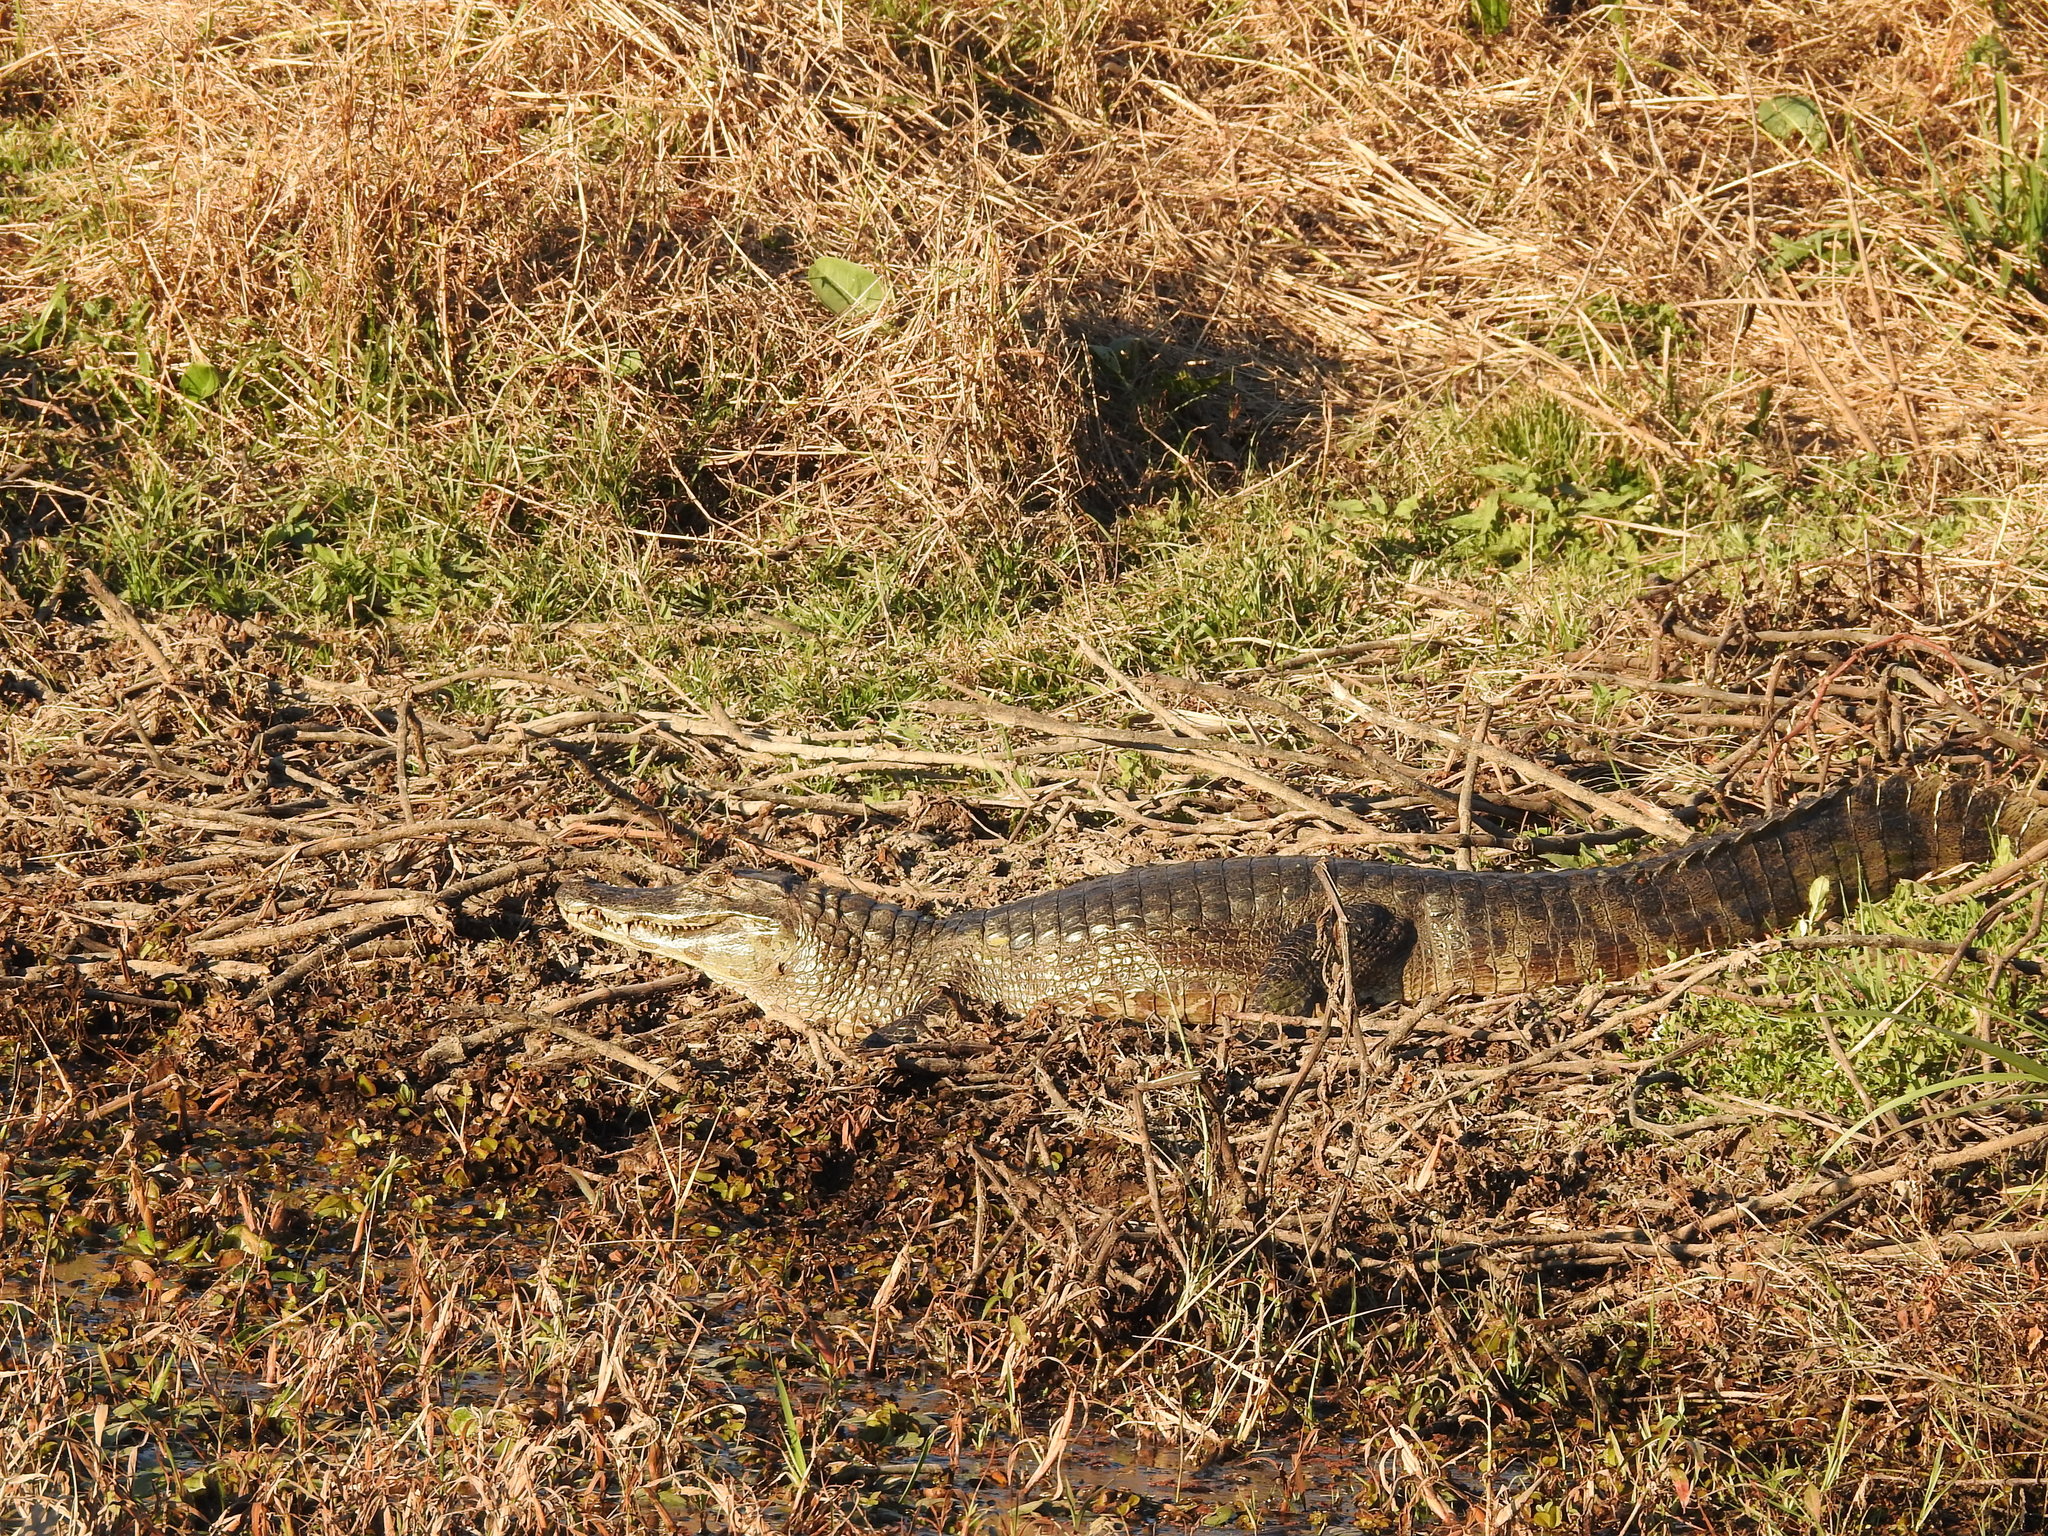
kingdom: Animalia
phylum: Chordata
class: Crocodylia
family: Alligatoridae
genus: Caiman
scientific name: Caiman yacare
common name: Yacare caiman
